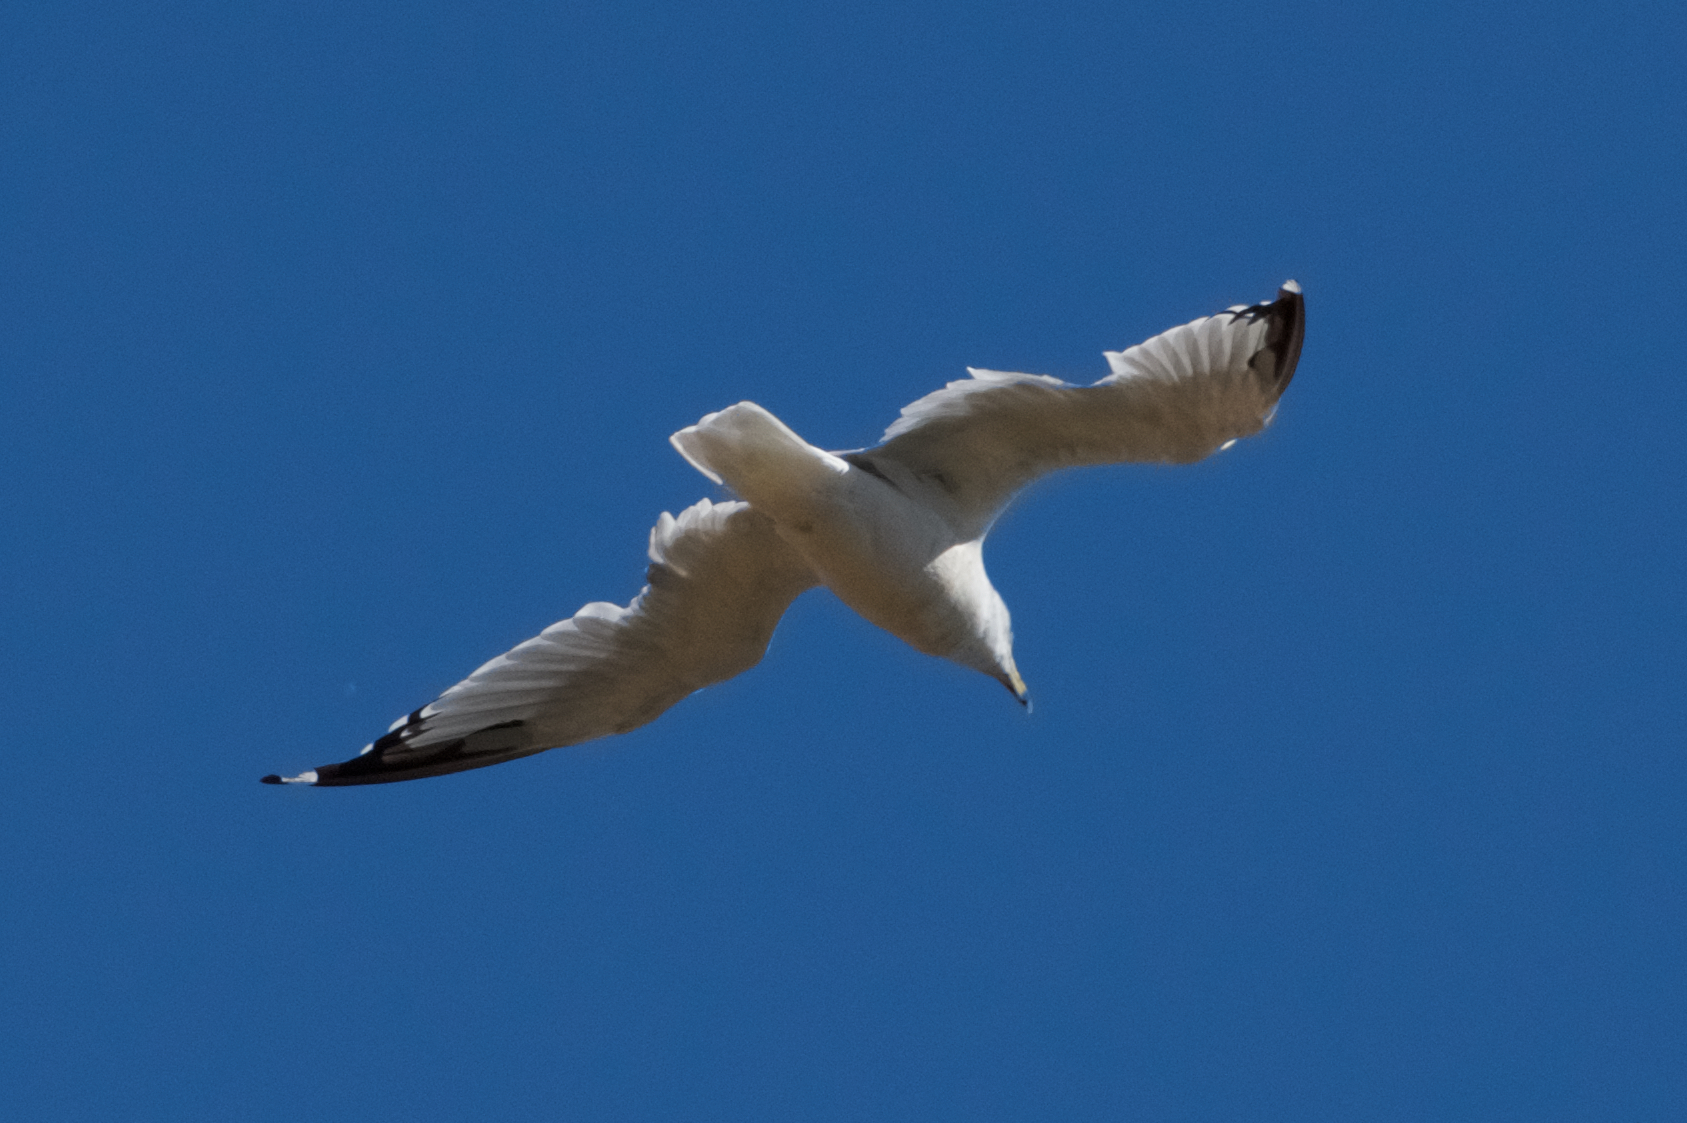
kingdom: Animalia
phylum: Chordata
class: Aves
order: Charadriiformes
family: Laridae
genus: Larus
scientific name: Larus delawarensis
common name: Ring-billed gull
